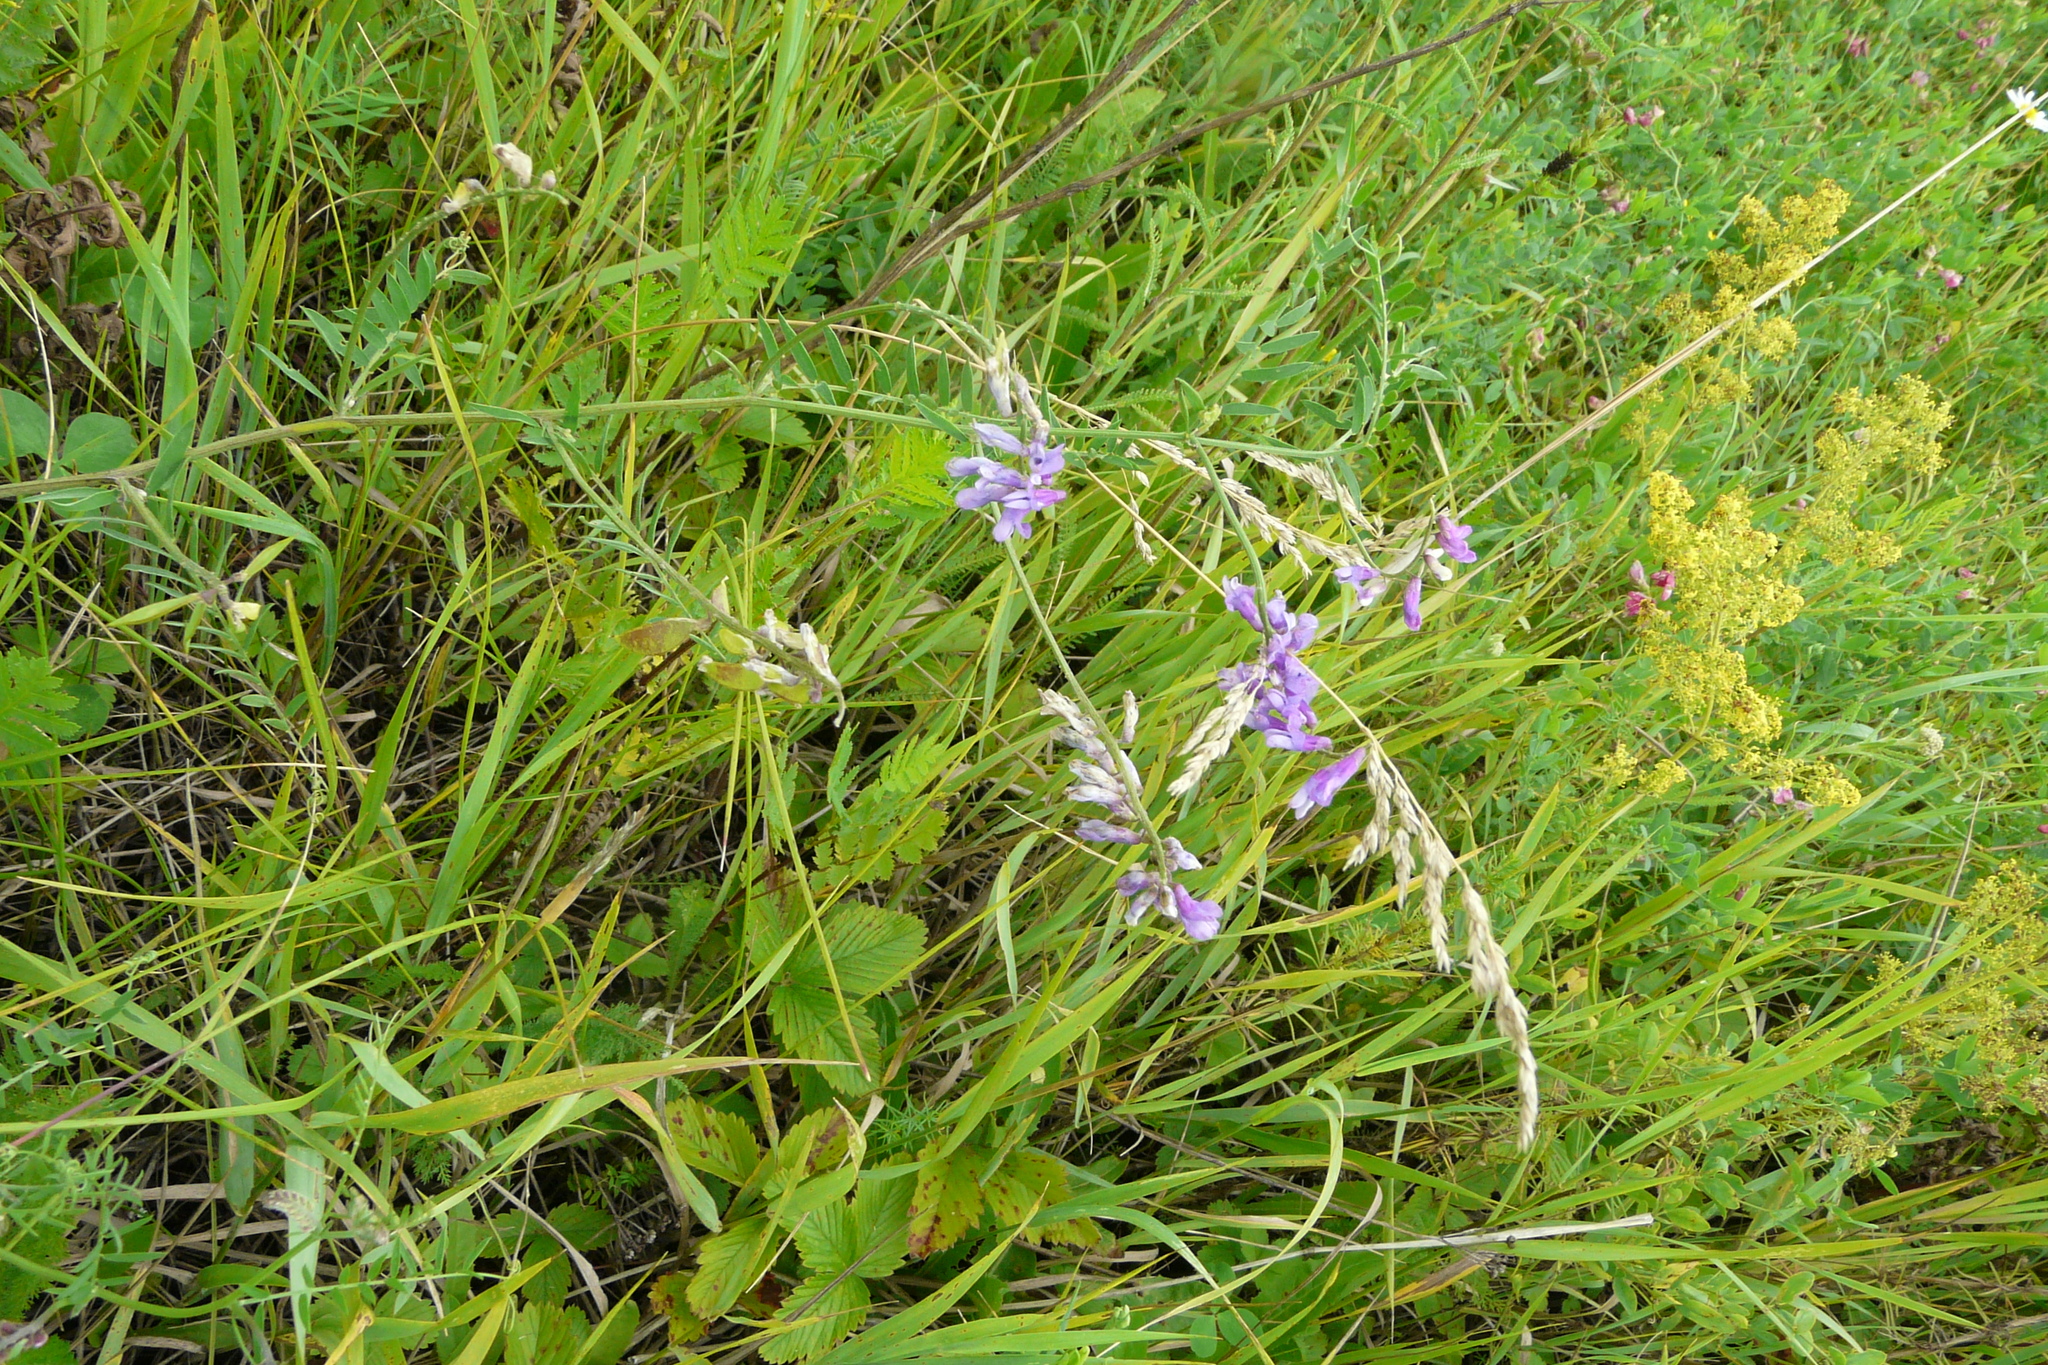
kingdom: Plantae
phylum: Tracheophyta
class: Magnoliopsida
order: Fabales
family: Fabaceae
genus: Vicia
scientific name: Vicia cracca
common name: Bird vetch
